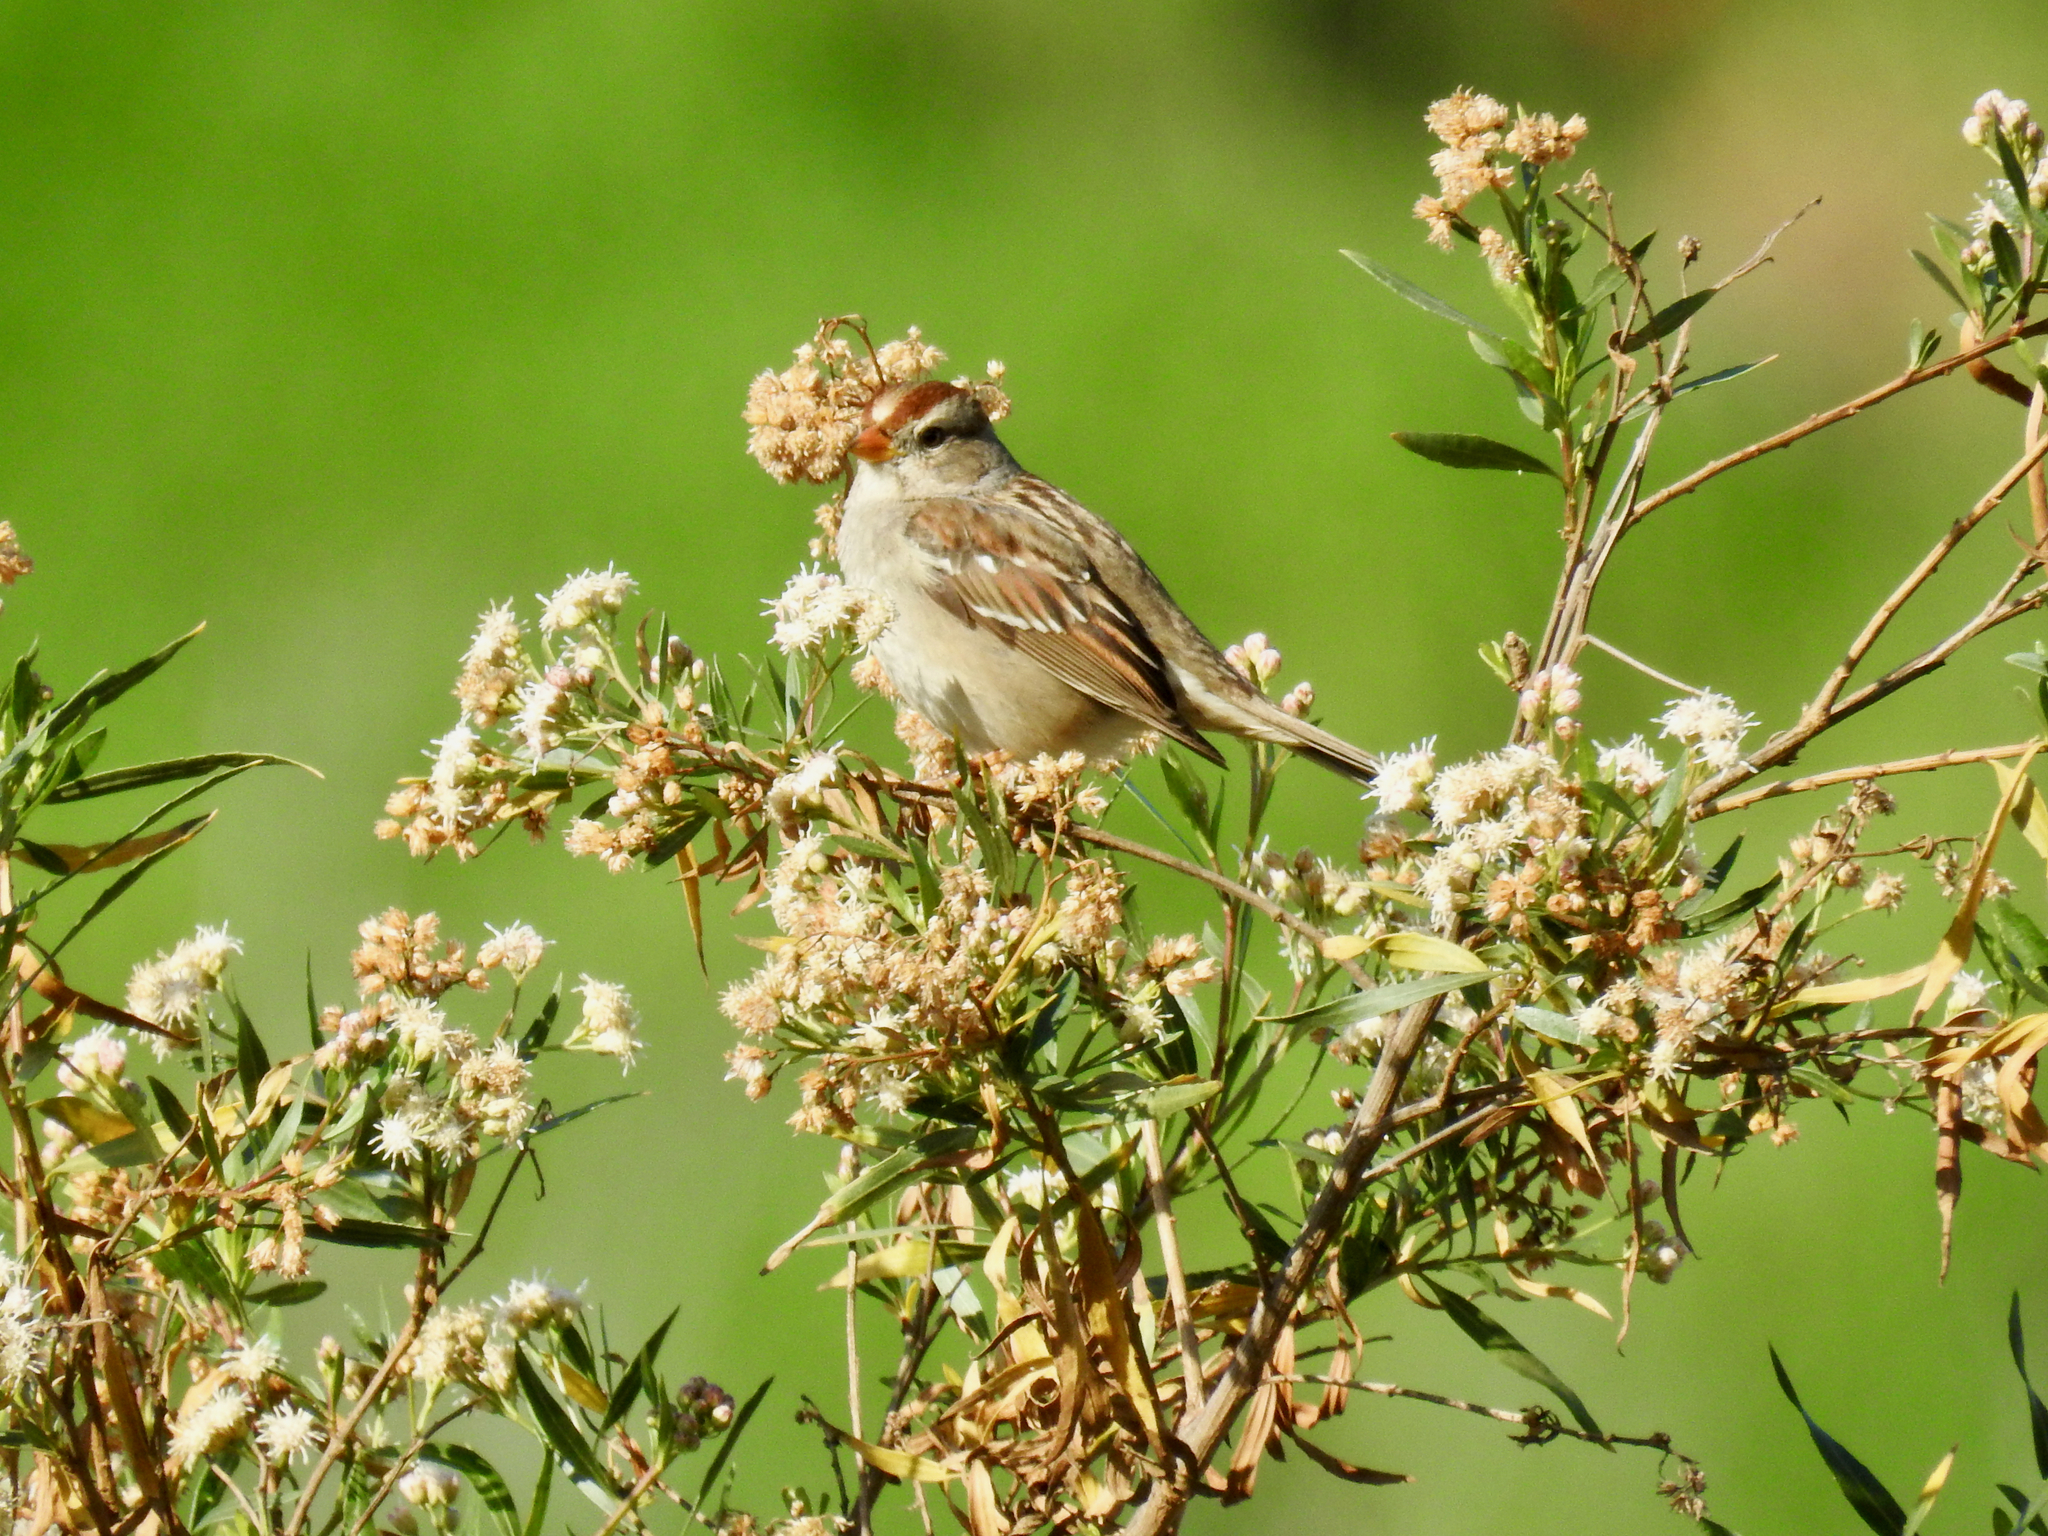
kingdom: Animalia
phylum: Chordata
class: Aves
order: Passeriformes
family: Passerellidae
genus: Zonotrichia
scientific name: Zonotrichia leucophrys
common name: White-crowned sparrow
